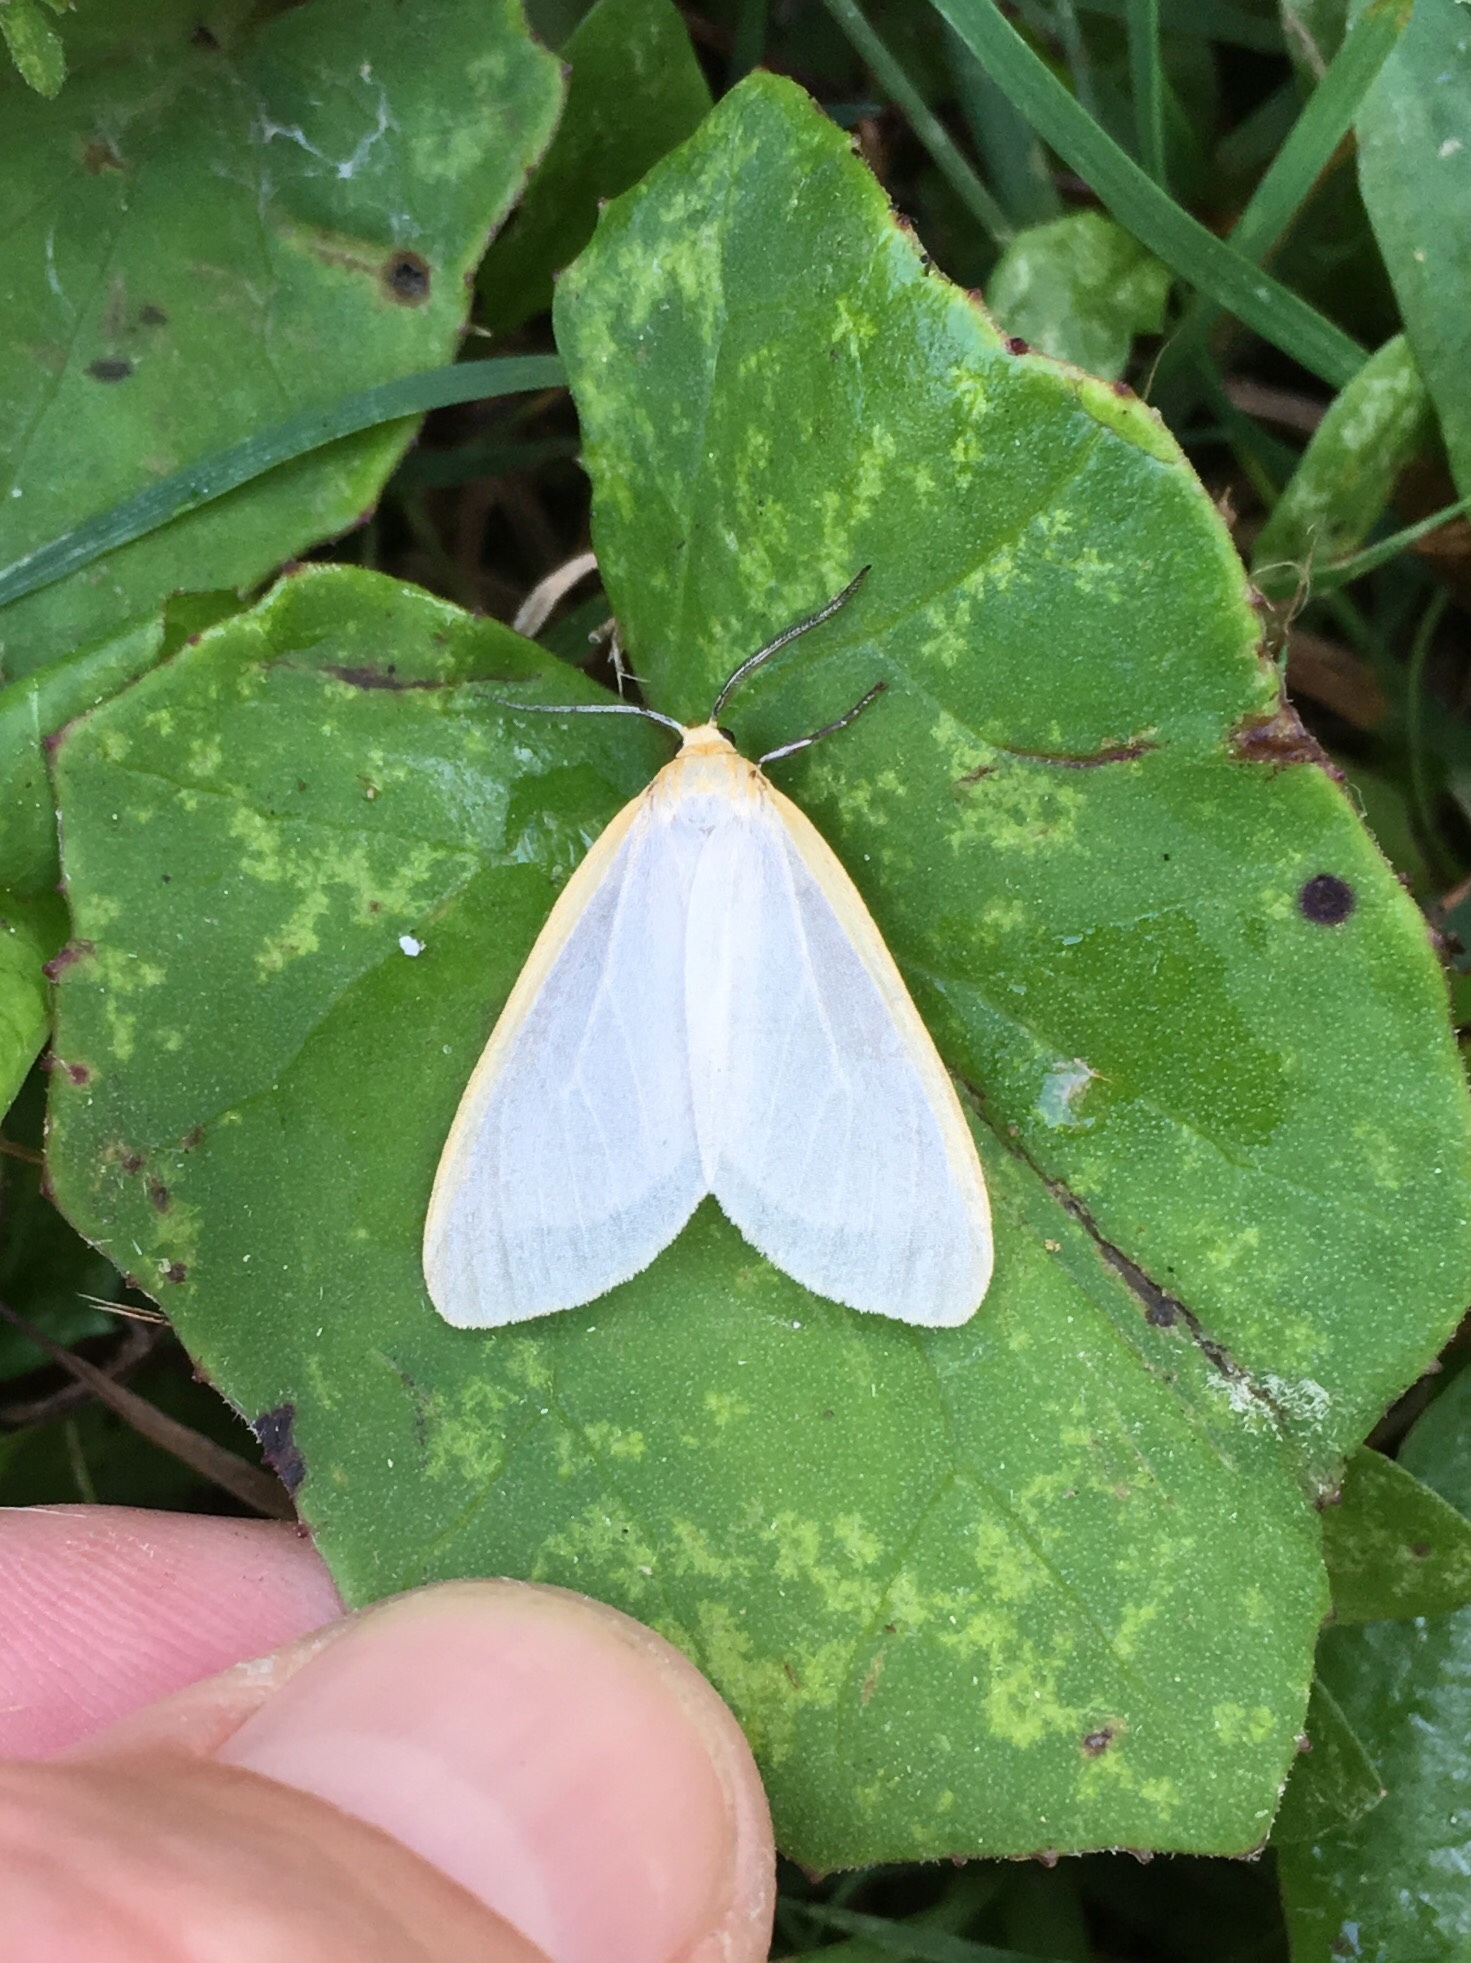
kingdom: Animalia
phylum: Arthropoda
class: Insecta
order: Lepidoptera
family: Erebidae
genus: Cycnia
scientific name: Cycnia tenera
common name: Delicate cycnia moth
